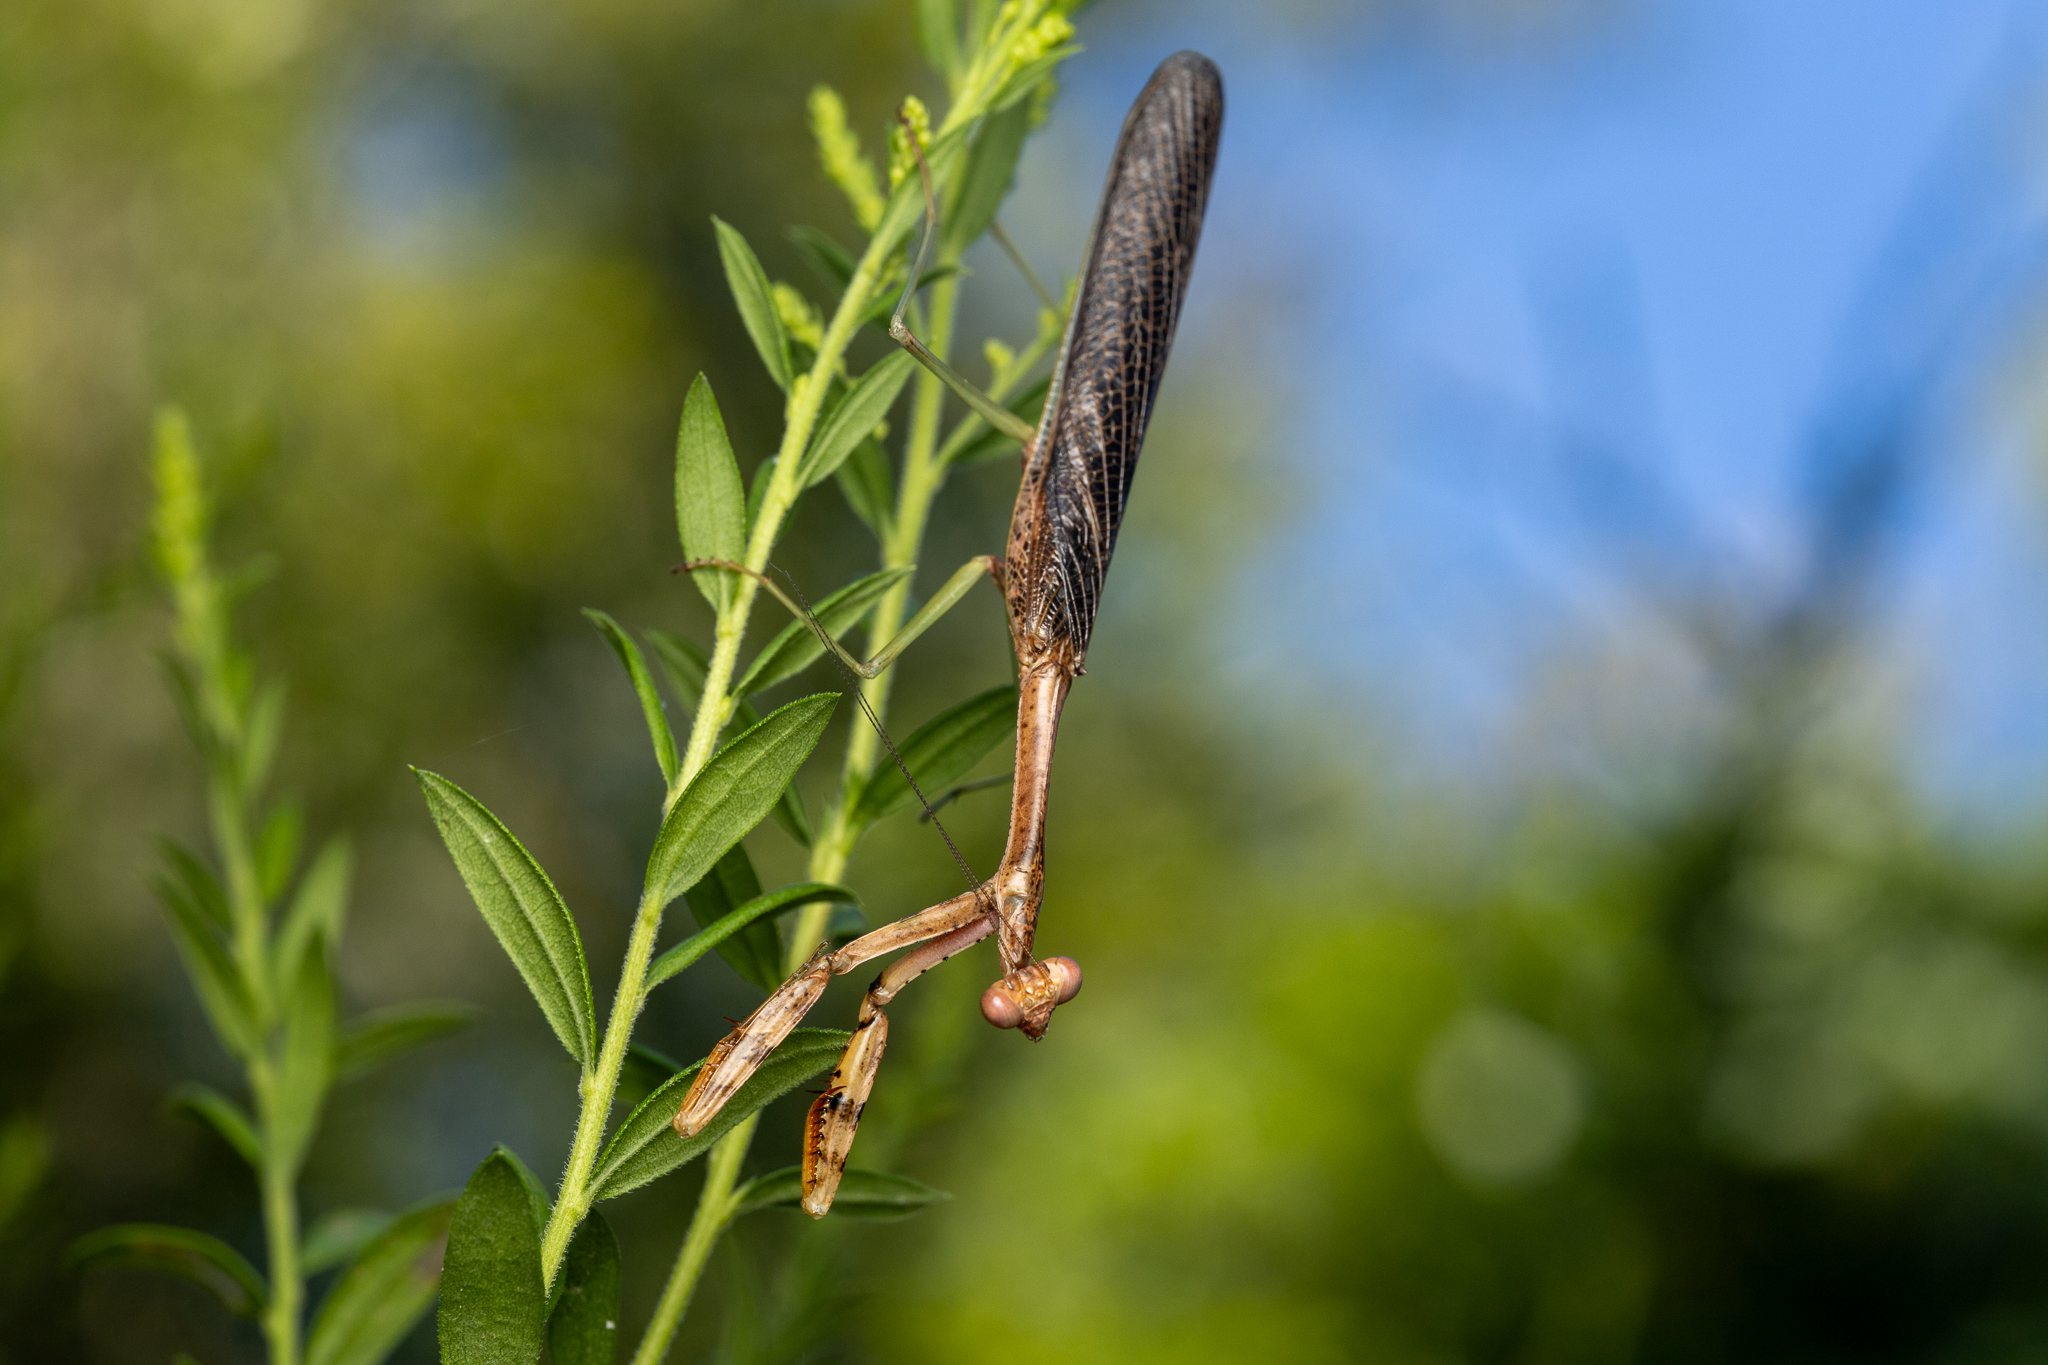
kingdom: Animalia
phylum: Arthropoda
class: Insecta
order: Mantodea
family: Mantidae
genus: Stagmomantis
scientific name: Stagmomantis carolina
